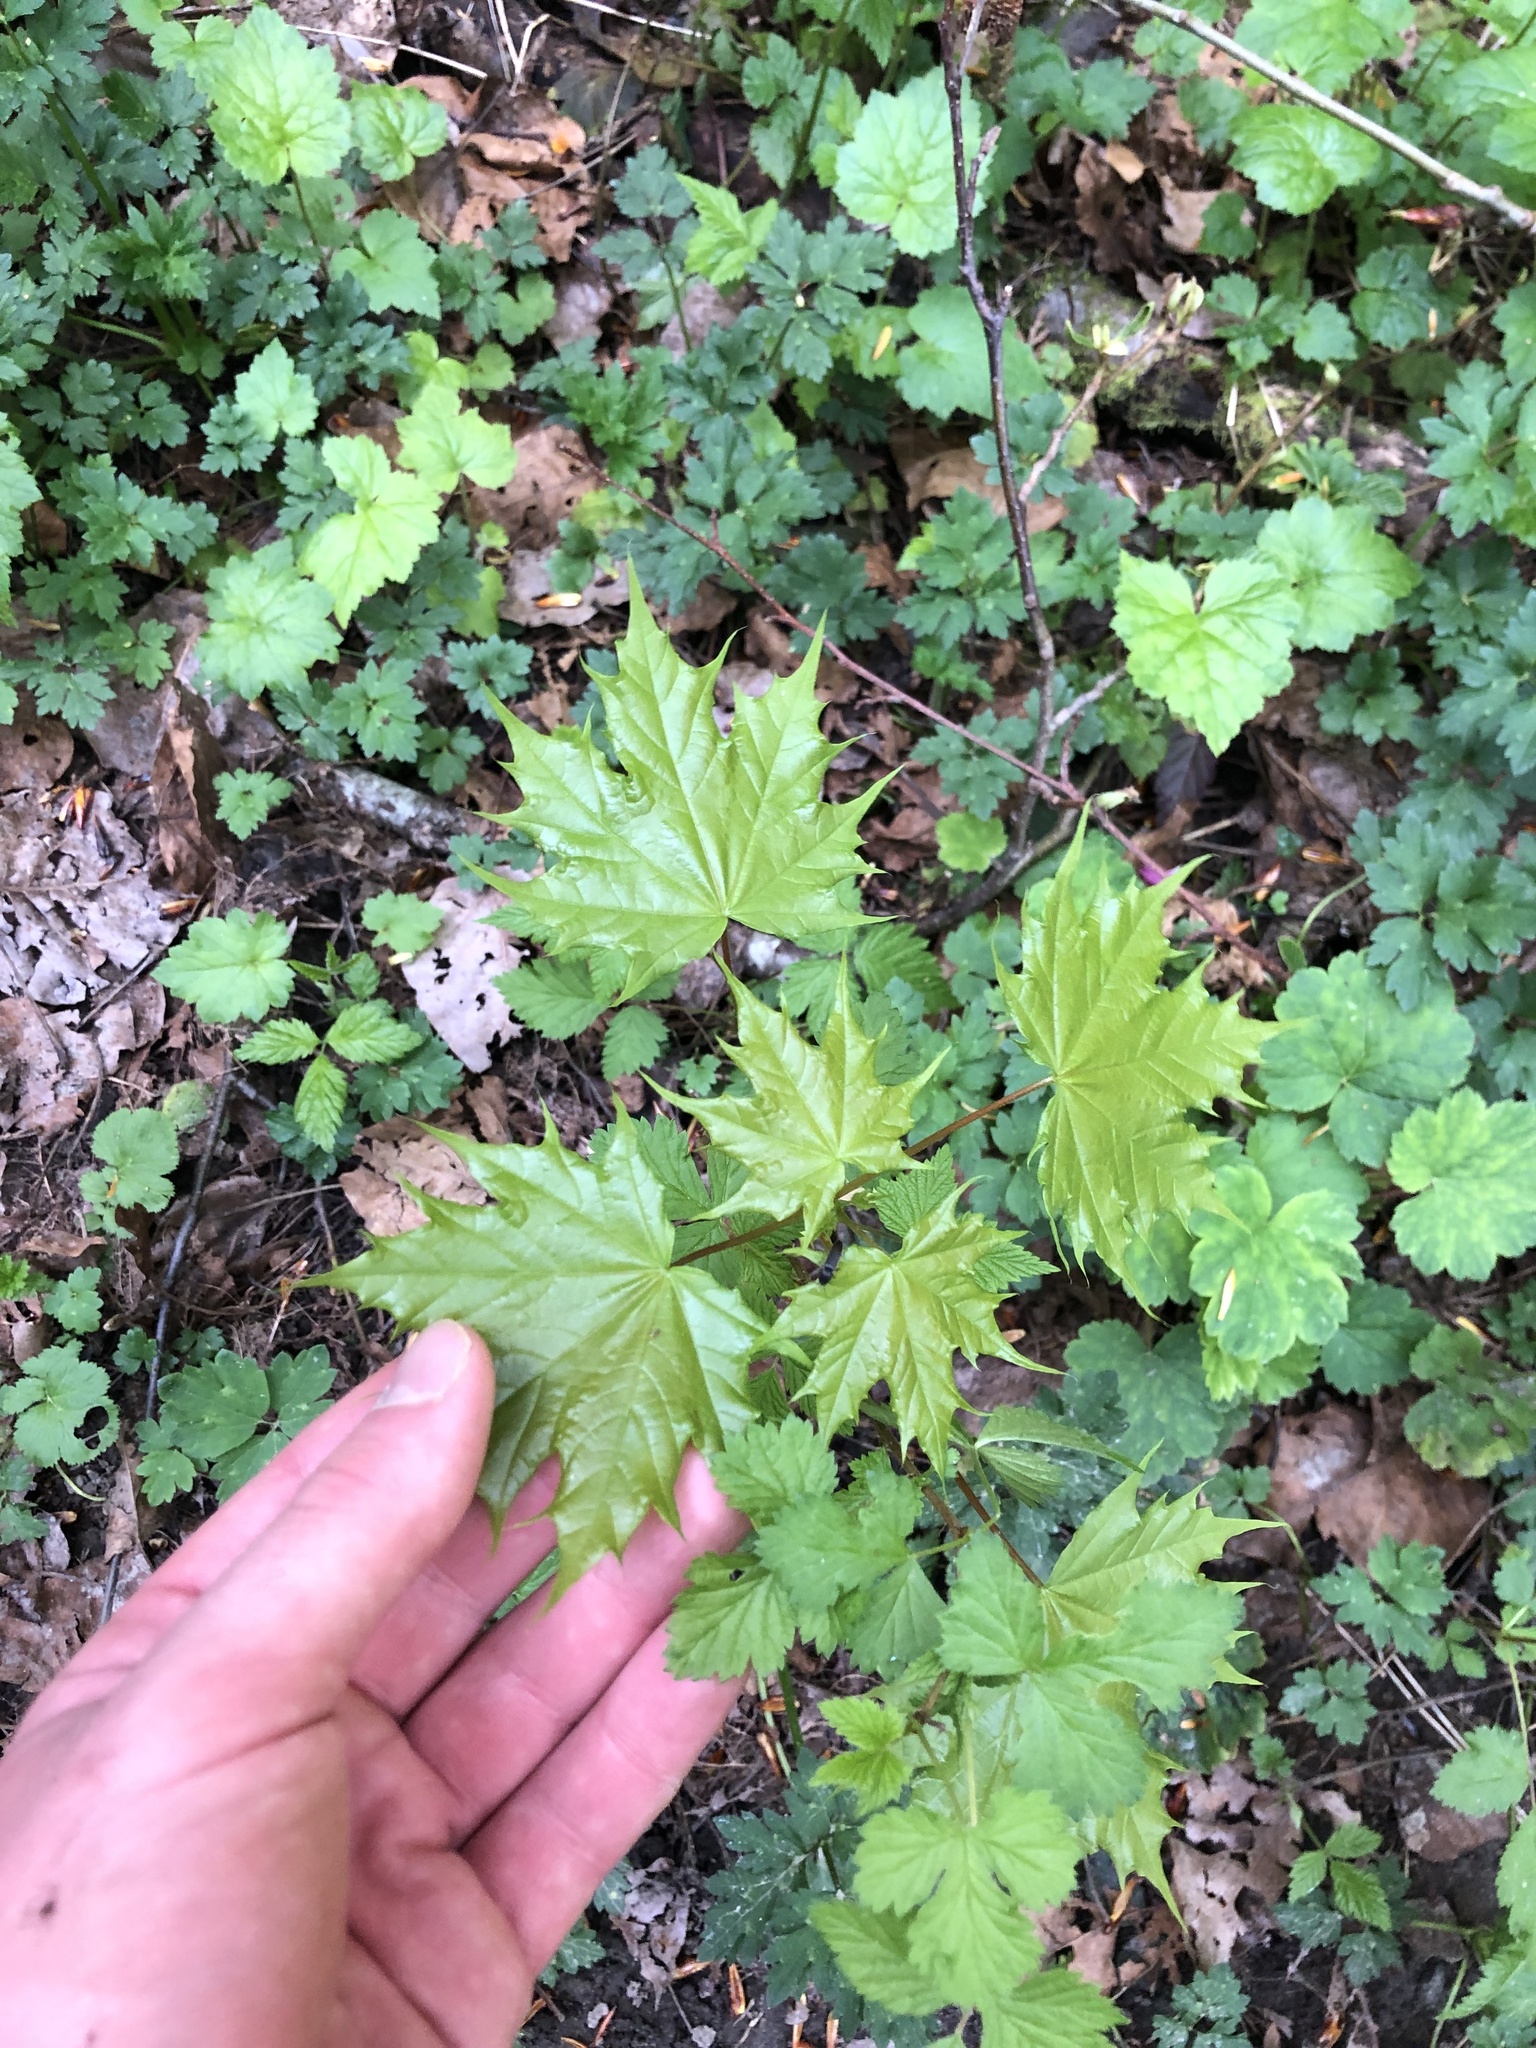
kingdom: Plantae
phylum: Tracheophyta
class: Magnoliopsida
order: Sapindales
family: Sapindaceae
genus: Acer
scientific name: Acer platanoides
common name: Norway maple
